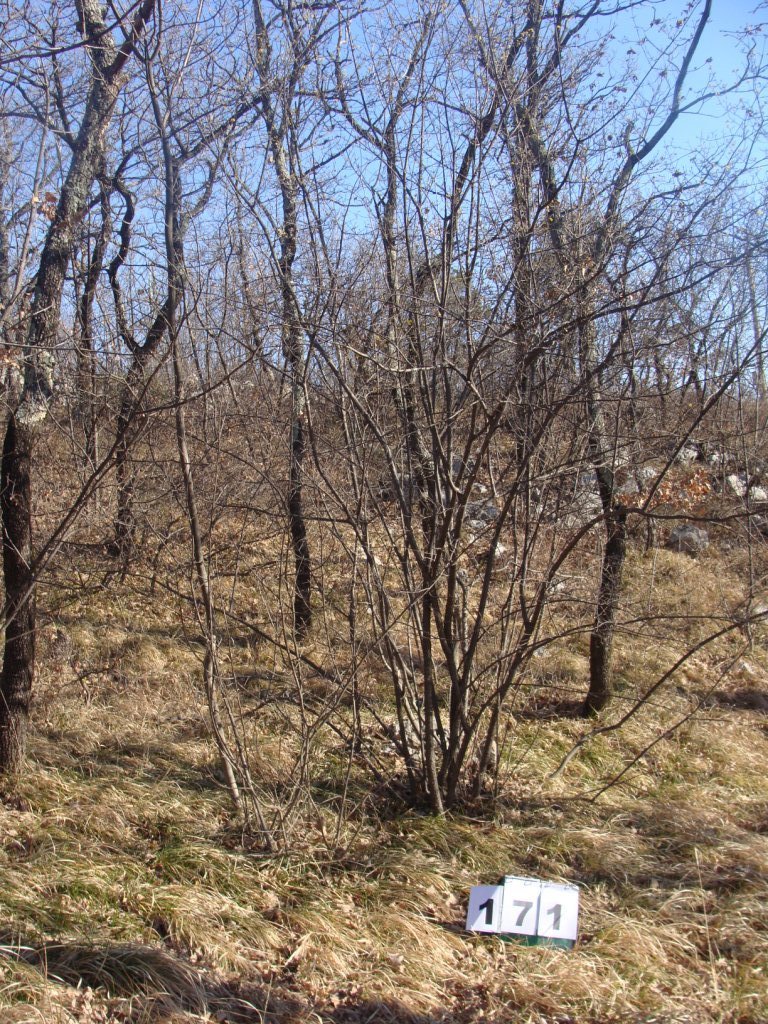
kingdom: Plantae
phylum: Tracheophyta
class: Magnoliopsida
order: Cornales
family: Cornaceae
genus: Cornus
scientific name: Cornus mas
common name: Cornelian-cherry
